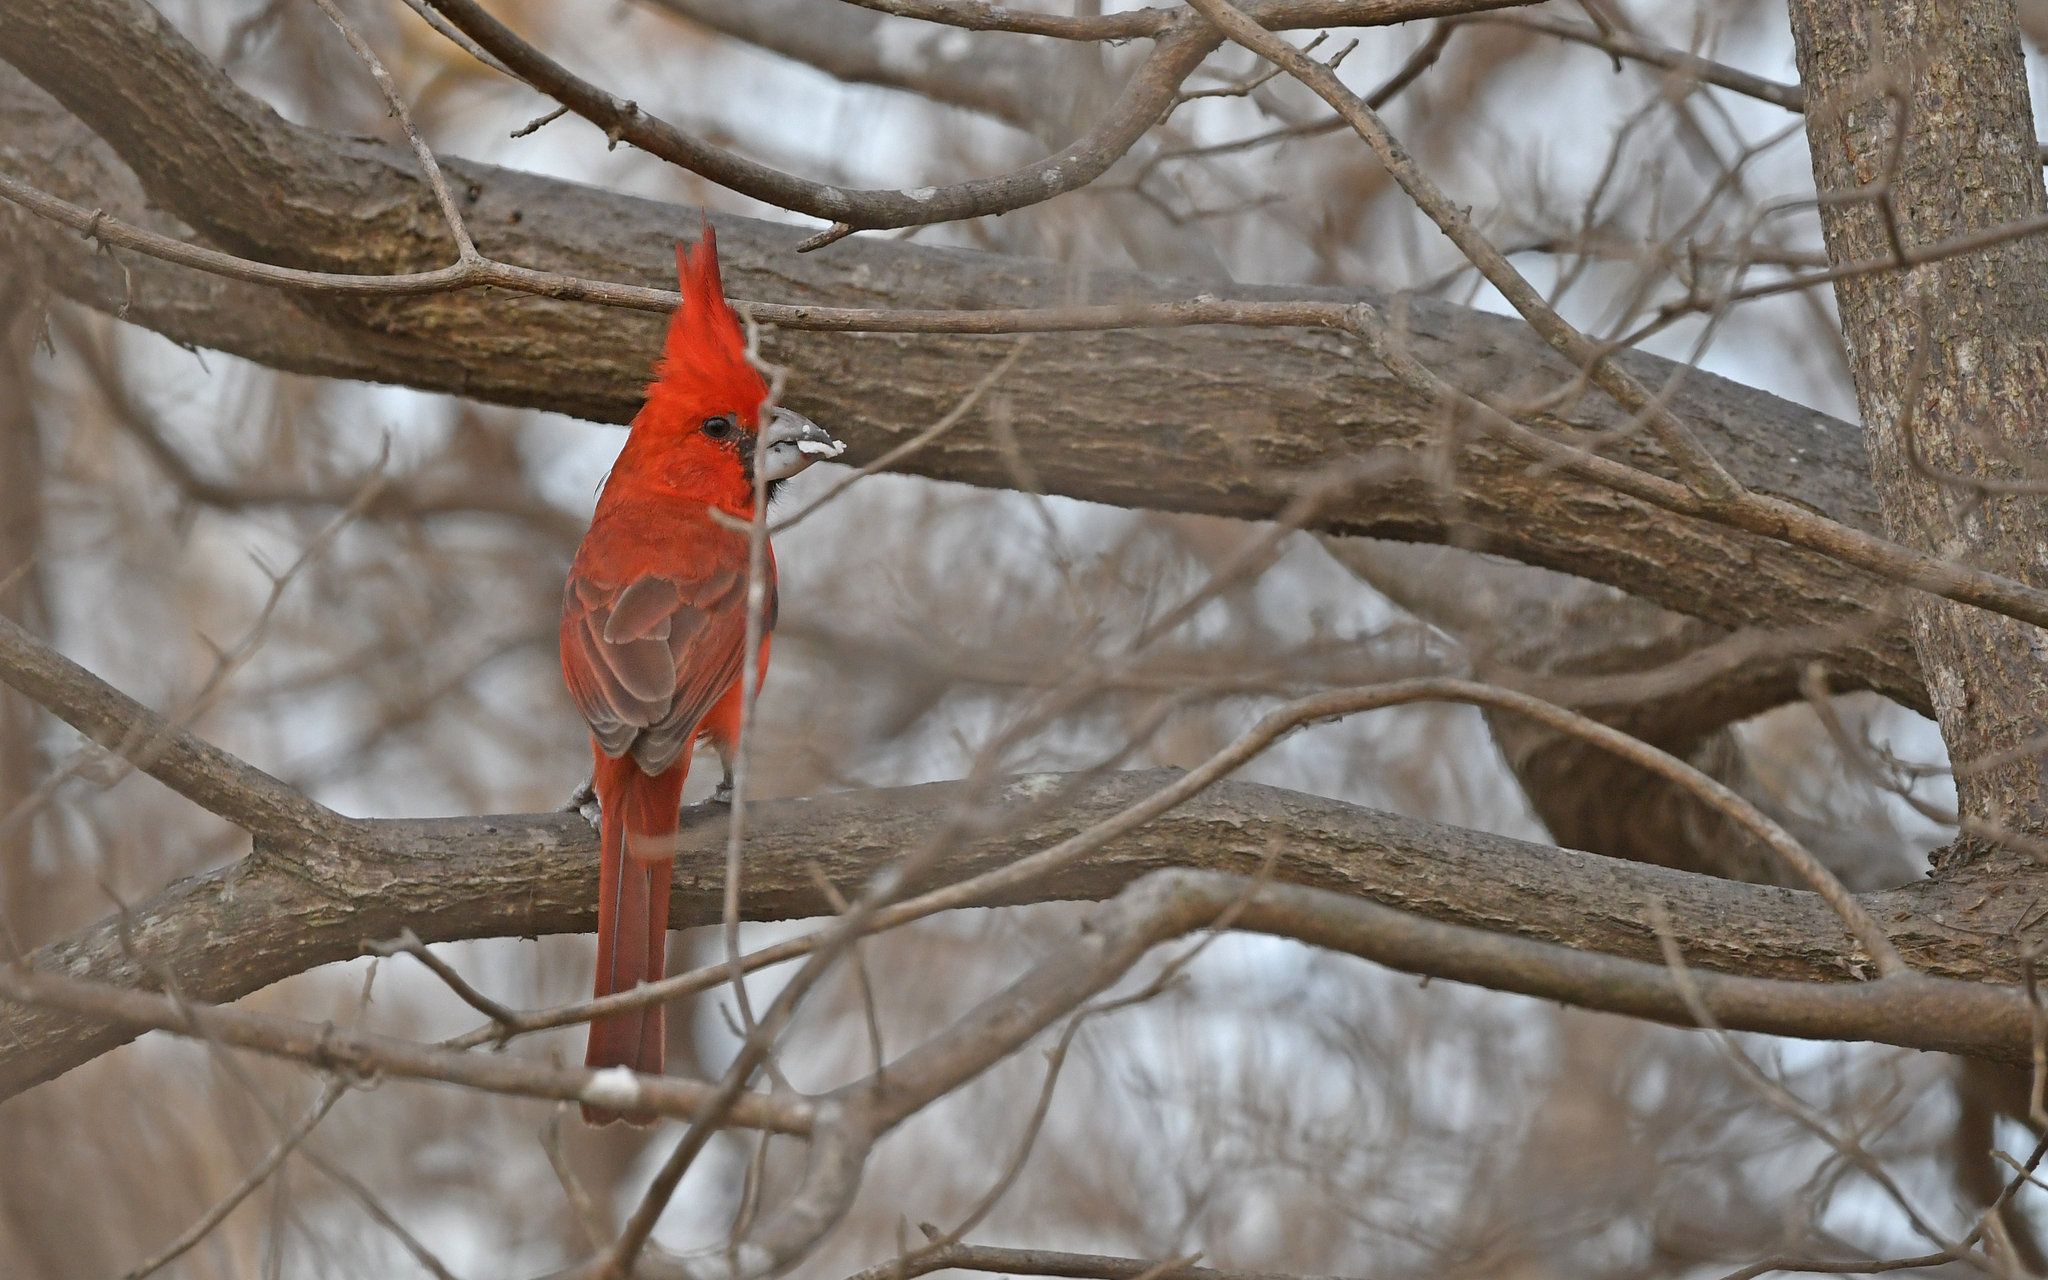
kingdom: Animalia
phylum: Chordata
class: Aves
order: Passeriformes
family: Cardinalidae
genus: Cardinalis
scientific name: Cardinalis phoeniceus
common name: Vermilion cardinal
